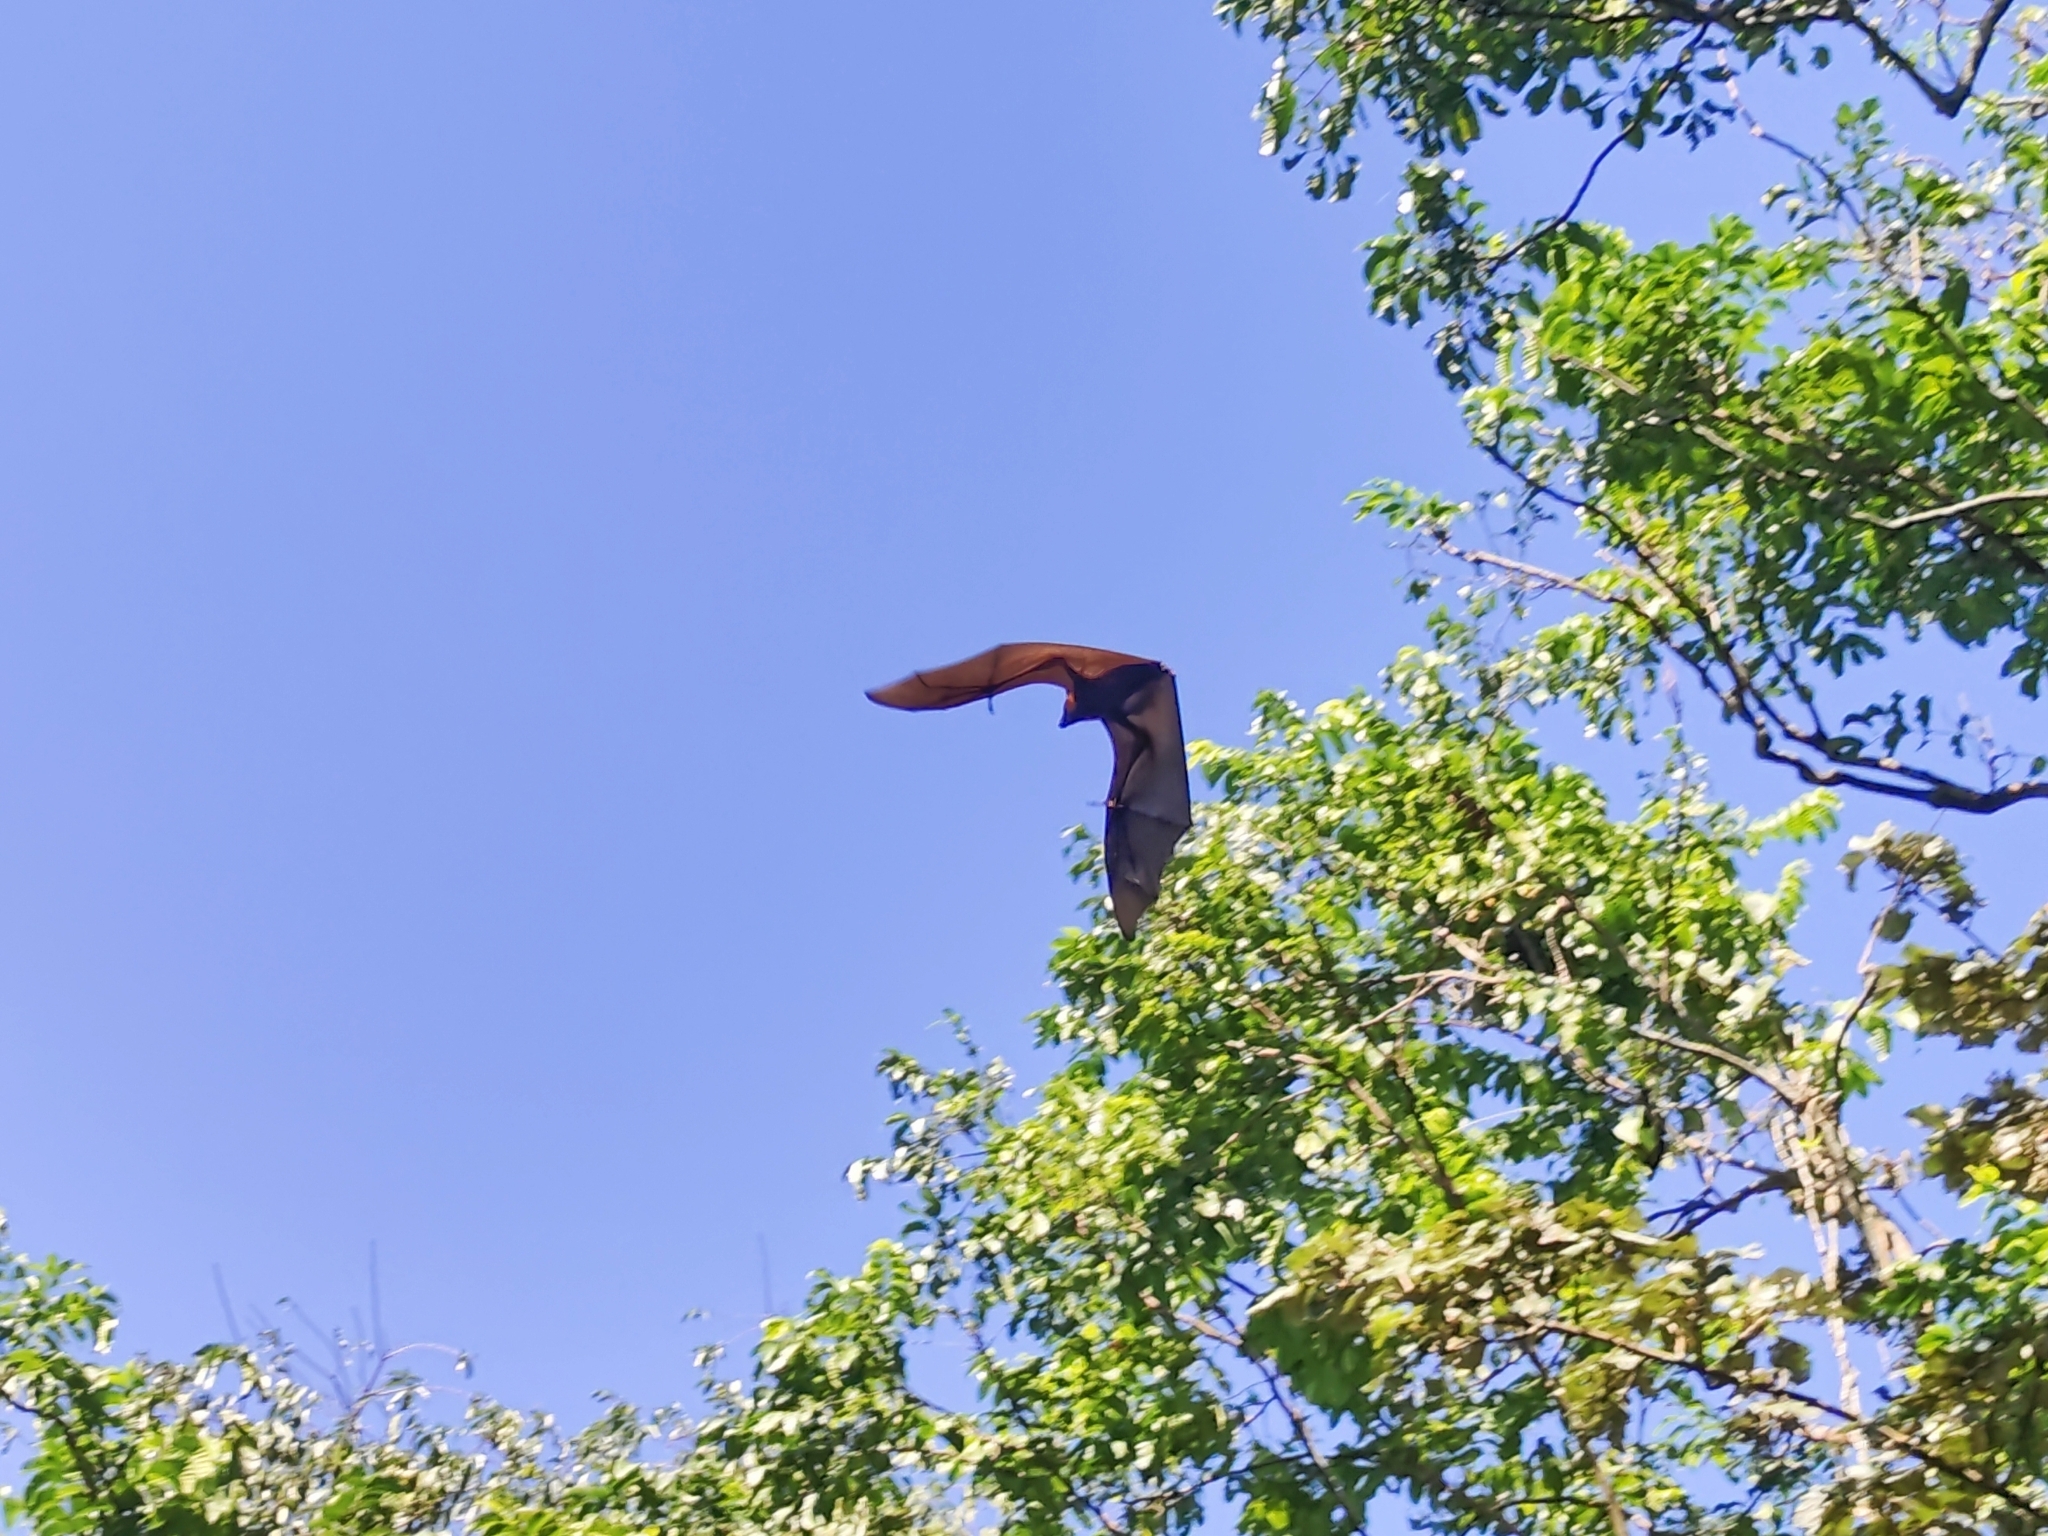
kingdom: Animalia
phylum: Chordata
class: Mammalia
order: Chiroptera
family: Pteropodidae
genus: Pteropus
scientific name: Pteropus vampyrus
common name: Large flying fox
